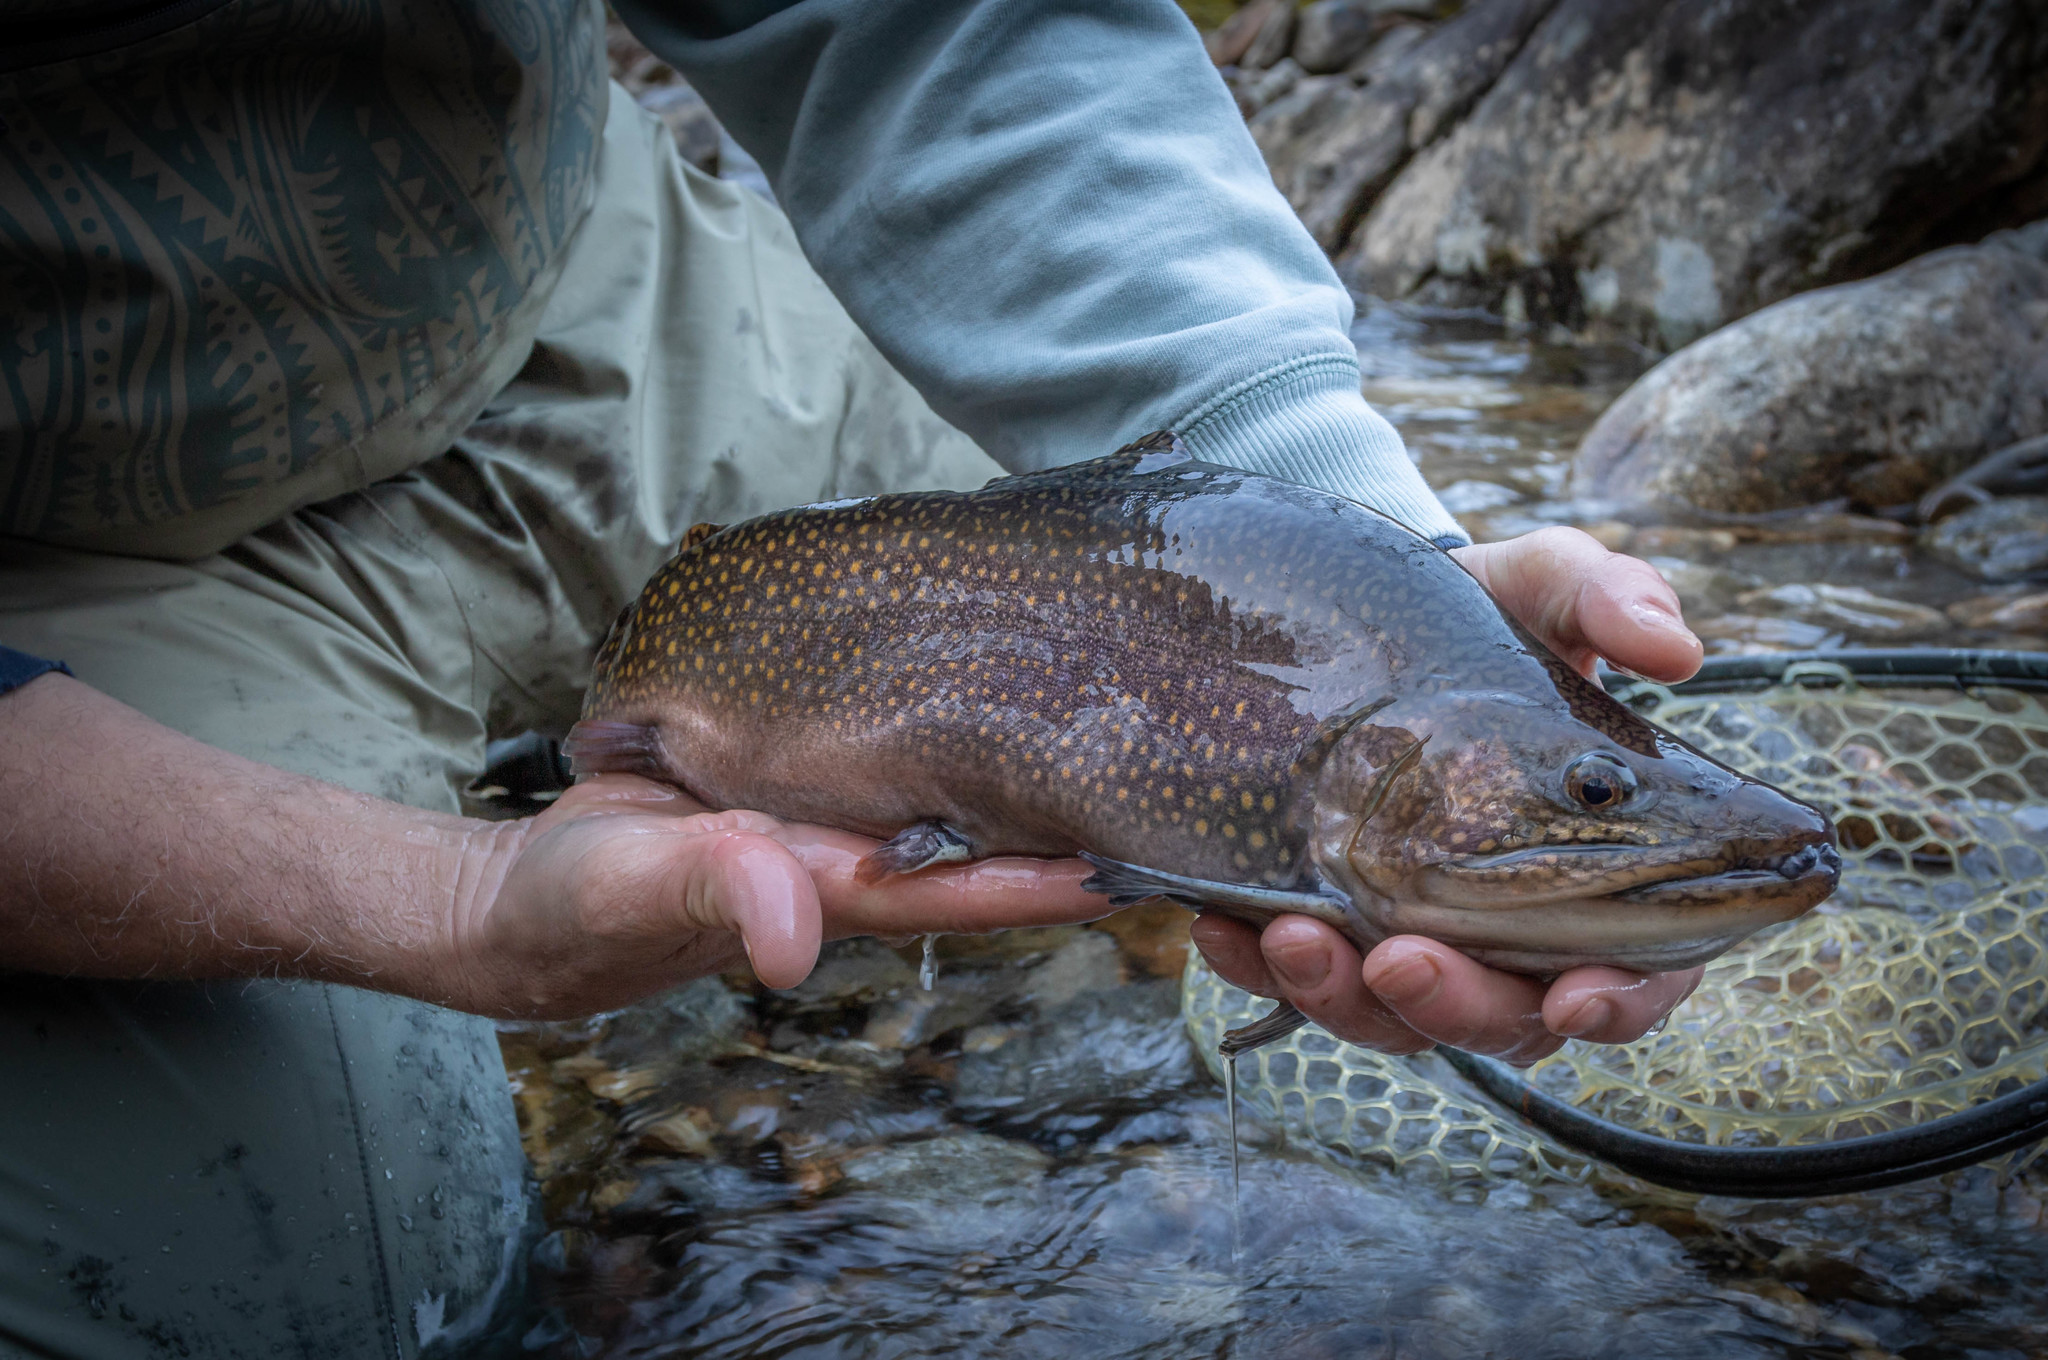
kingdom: Animalia
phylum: Chordata
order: Salmoniformes
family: Salmonidae
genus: Salvelinus
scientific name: Salvelinus fontinalis
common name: Brook trout
